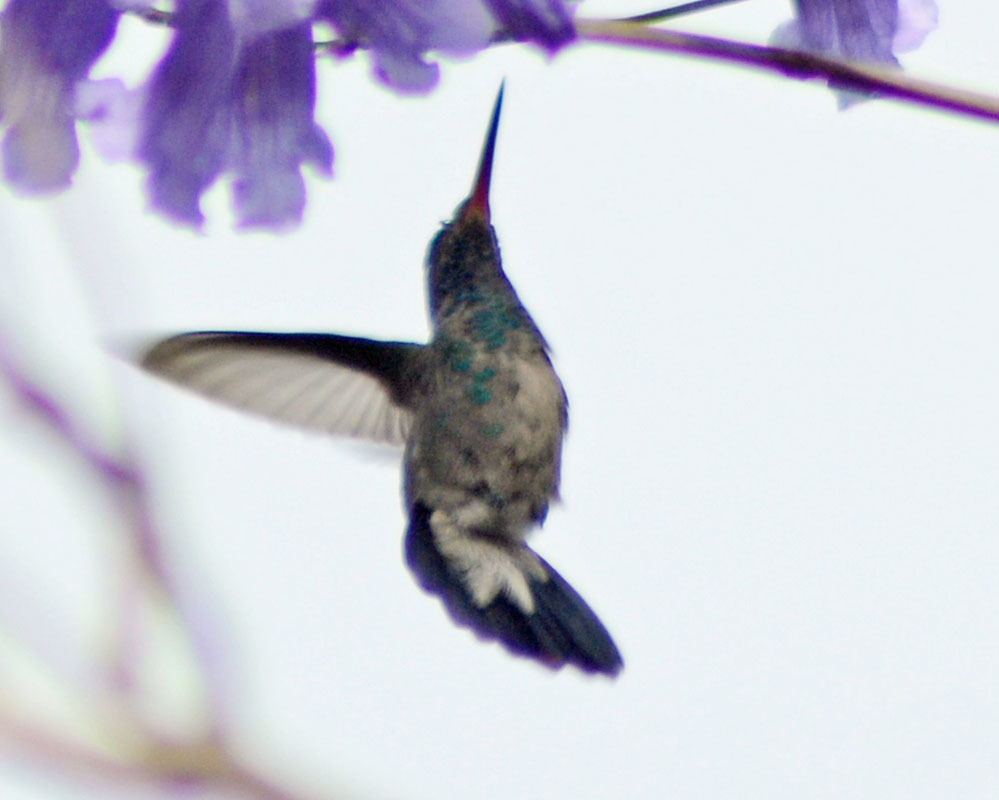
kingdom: Animalia
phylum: Chordata
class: Aves
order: Apodiformes
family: Trochilidae
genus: Cynanthus
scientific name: Cynanthus latirostris
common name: Broad-billed hummingbird
